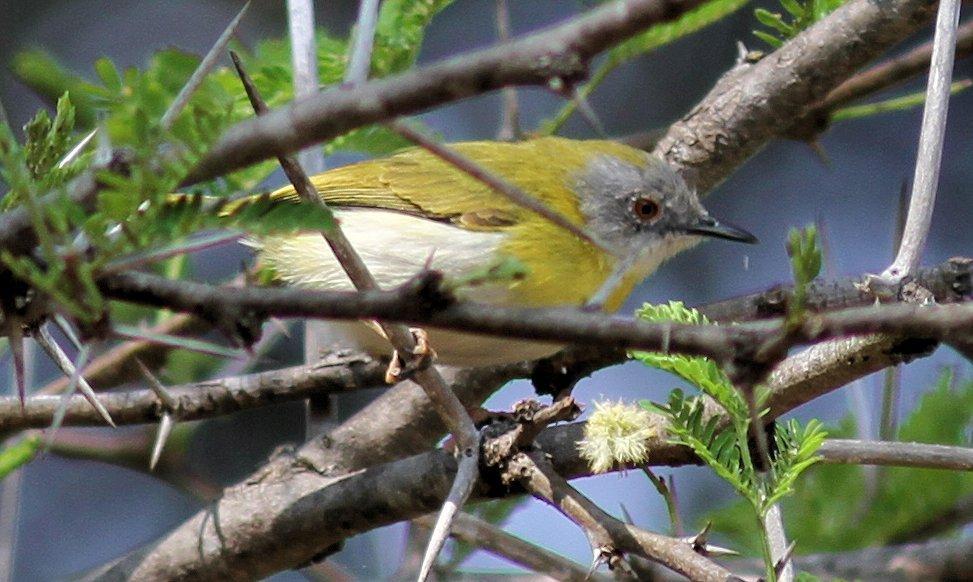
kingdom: Animalia
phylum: Chordata
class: Aves
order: Passeriformes
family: Cisticolidae
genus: Apalis
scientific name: Apalis flavida
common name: Yellow-breasted apalis
